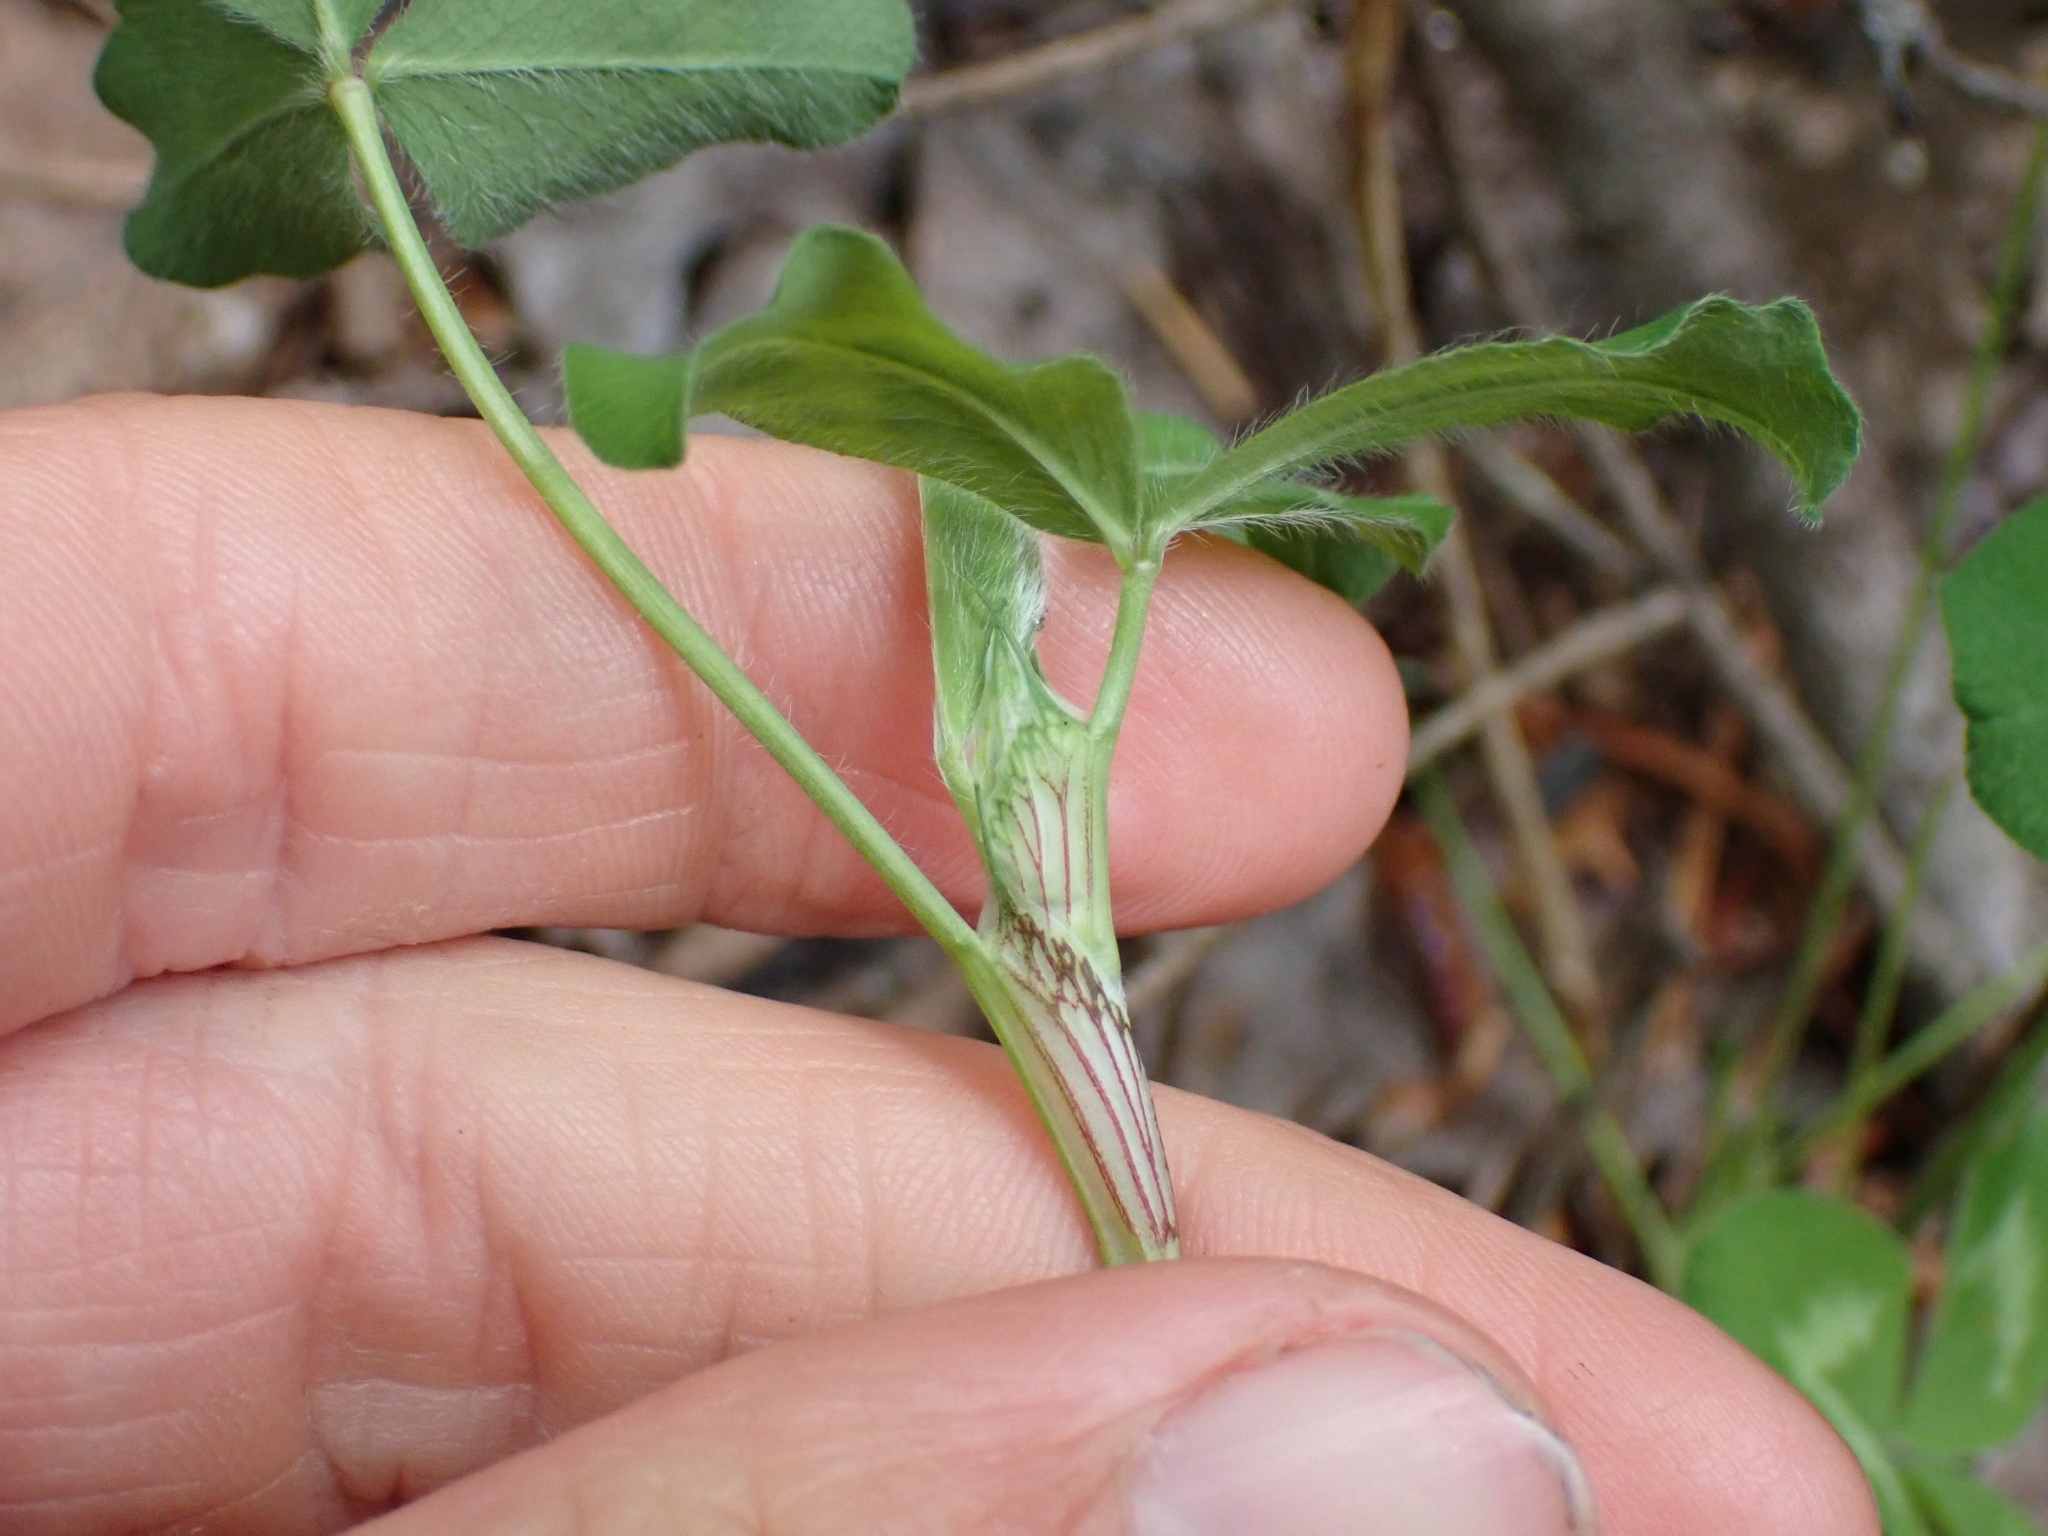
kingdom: Plantae
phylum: Tracheophyta
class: Magnoliopsida
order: Fabales
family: Fabaceae
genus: Trifolium
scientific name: Trifolium pratense
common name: Red clover
